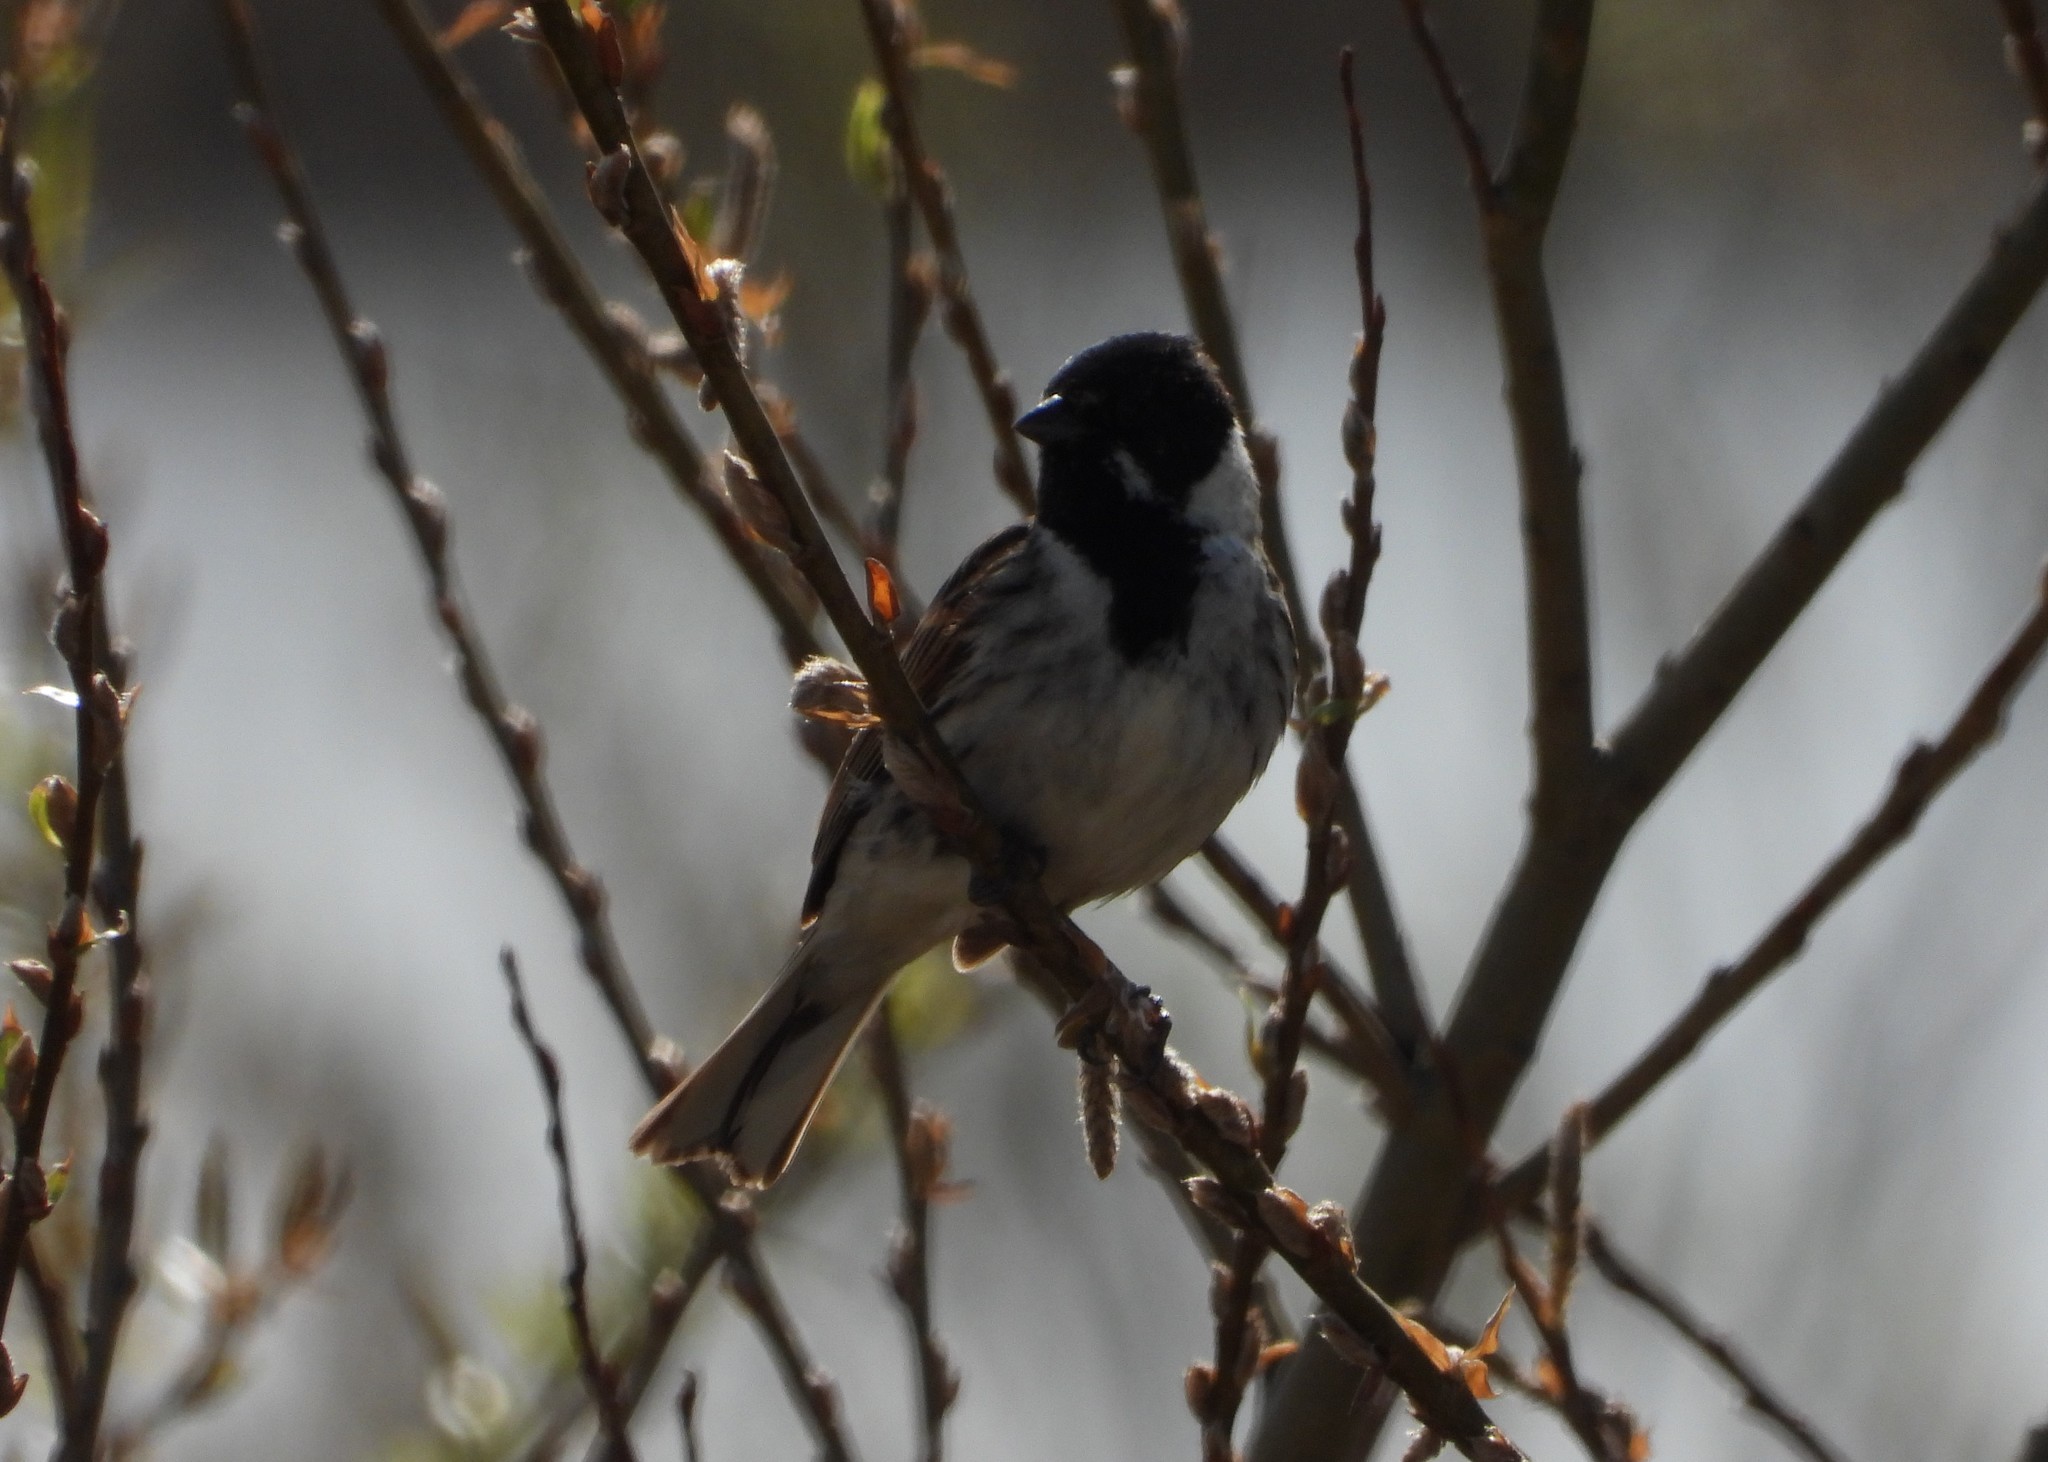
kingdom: Animalia
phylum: Chordata
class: Aves
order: Passeriformes
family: Emberizidae
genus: Emberiza
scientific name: Emberiza schoeniclus
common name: Reed bunting
